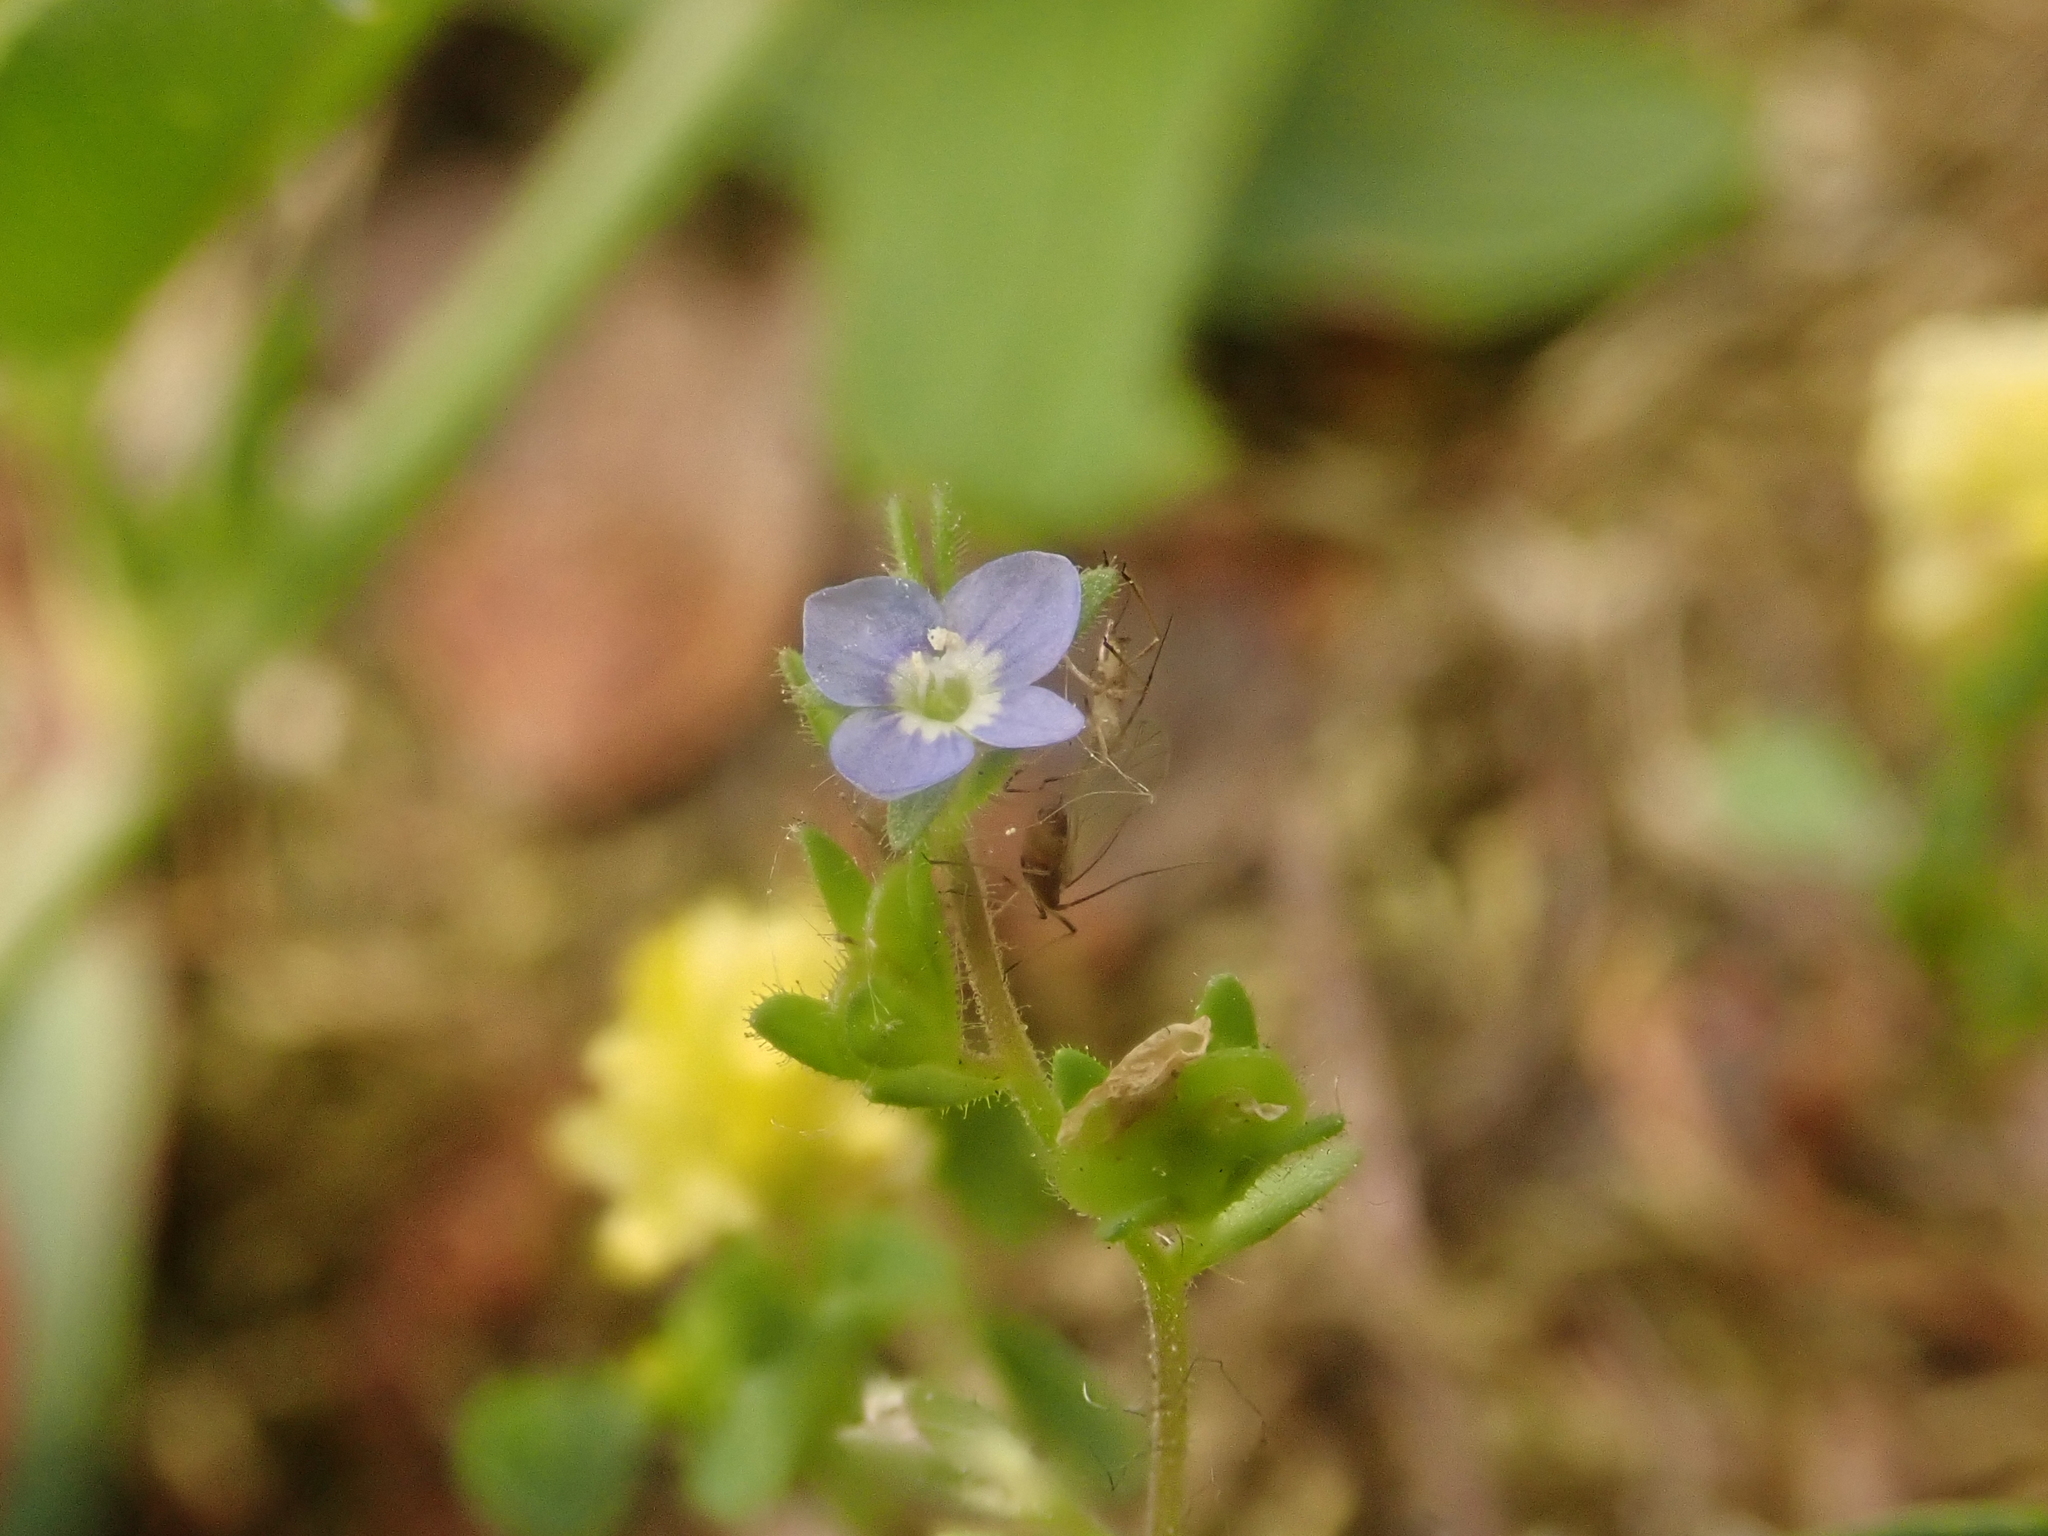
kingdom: Plantae
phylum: Tracheophyta
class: Magnoliopsida
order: Lamiales
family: Plantaginaceae
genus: Veronica
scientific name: Veronica arvensis
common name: Corn speedwell
